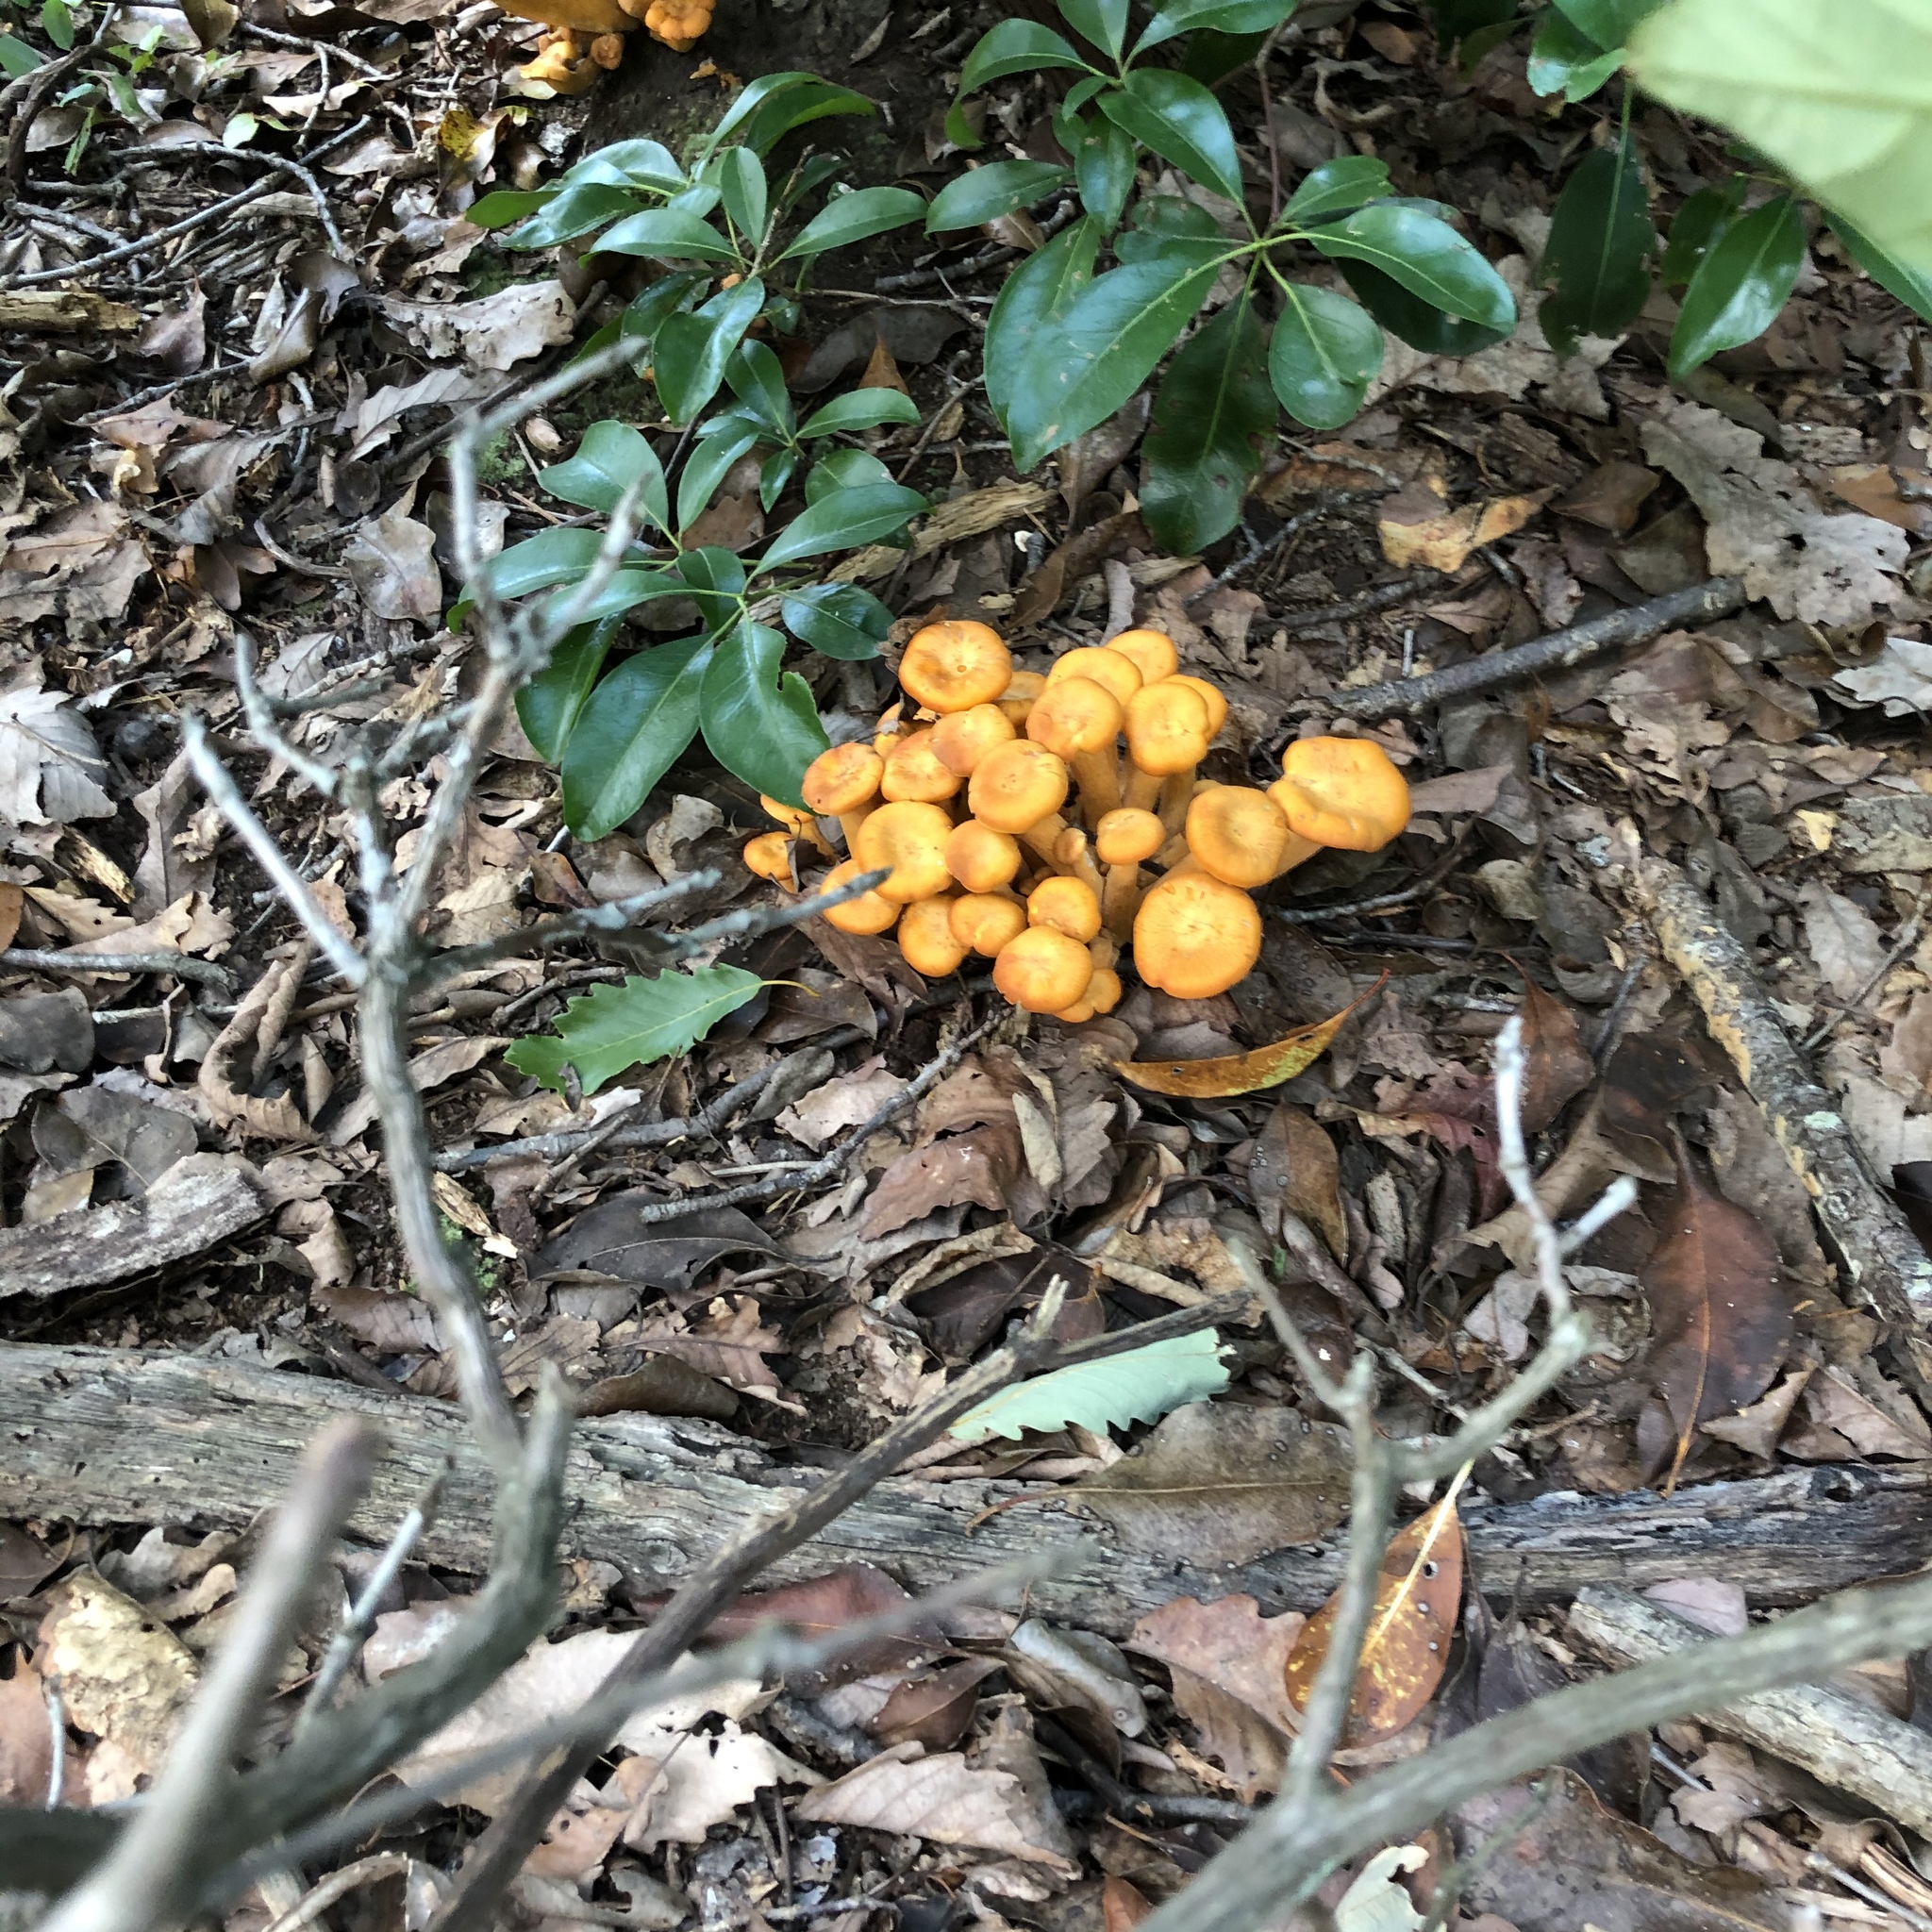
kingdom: Fungi
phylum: Basidiomycota
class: Agaricomycetes
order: Agaricales
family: Omphalotaceae
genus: Omphalotus
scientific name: Omphalotus illudens
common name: Jack o lantern
